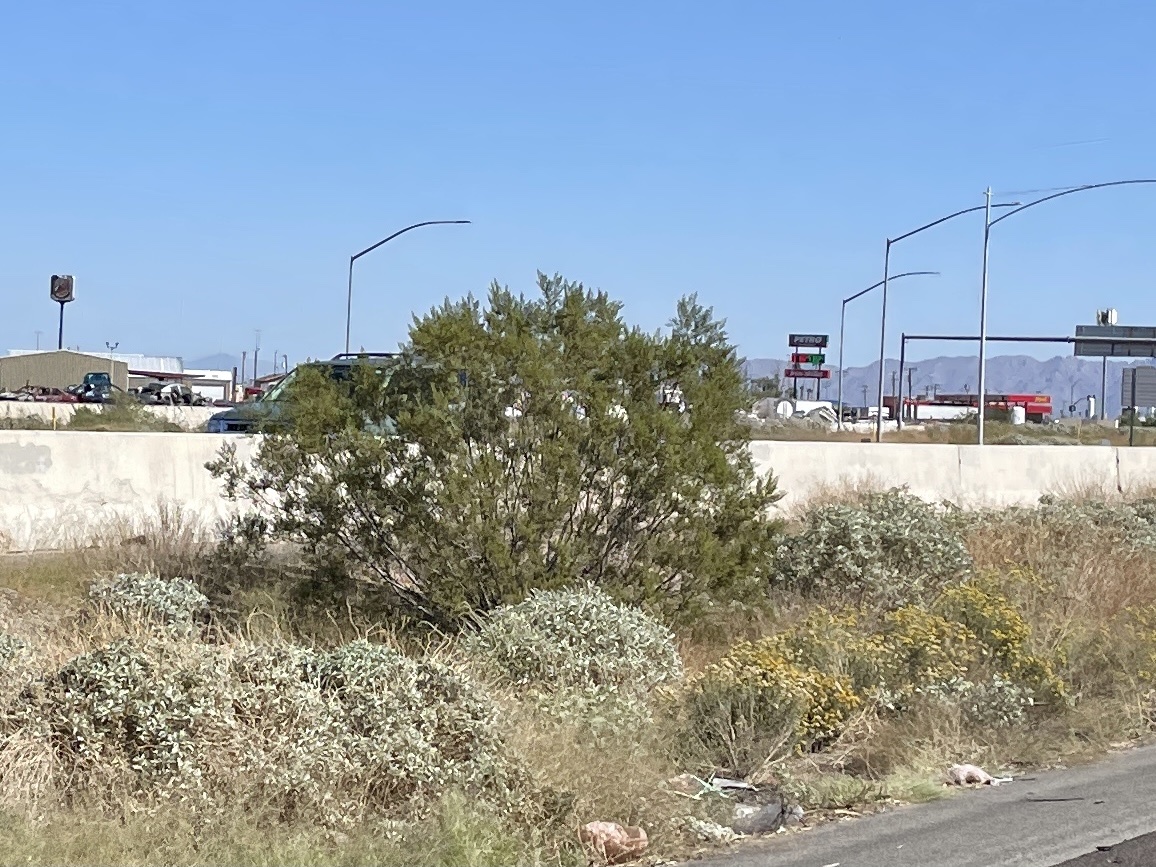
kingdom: Plantae
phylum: Tracheophyta
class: Magnoliopsida
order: Zygophyllales
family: Zygophyllaceae
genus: Larrea
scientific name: Larrea tridentata
